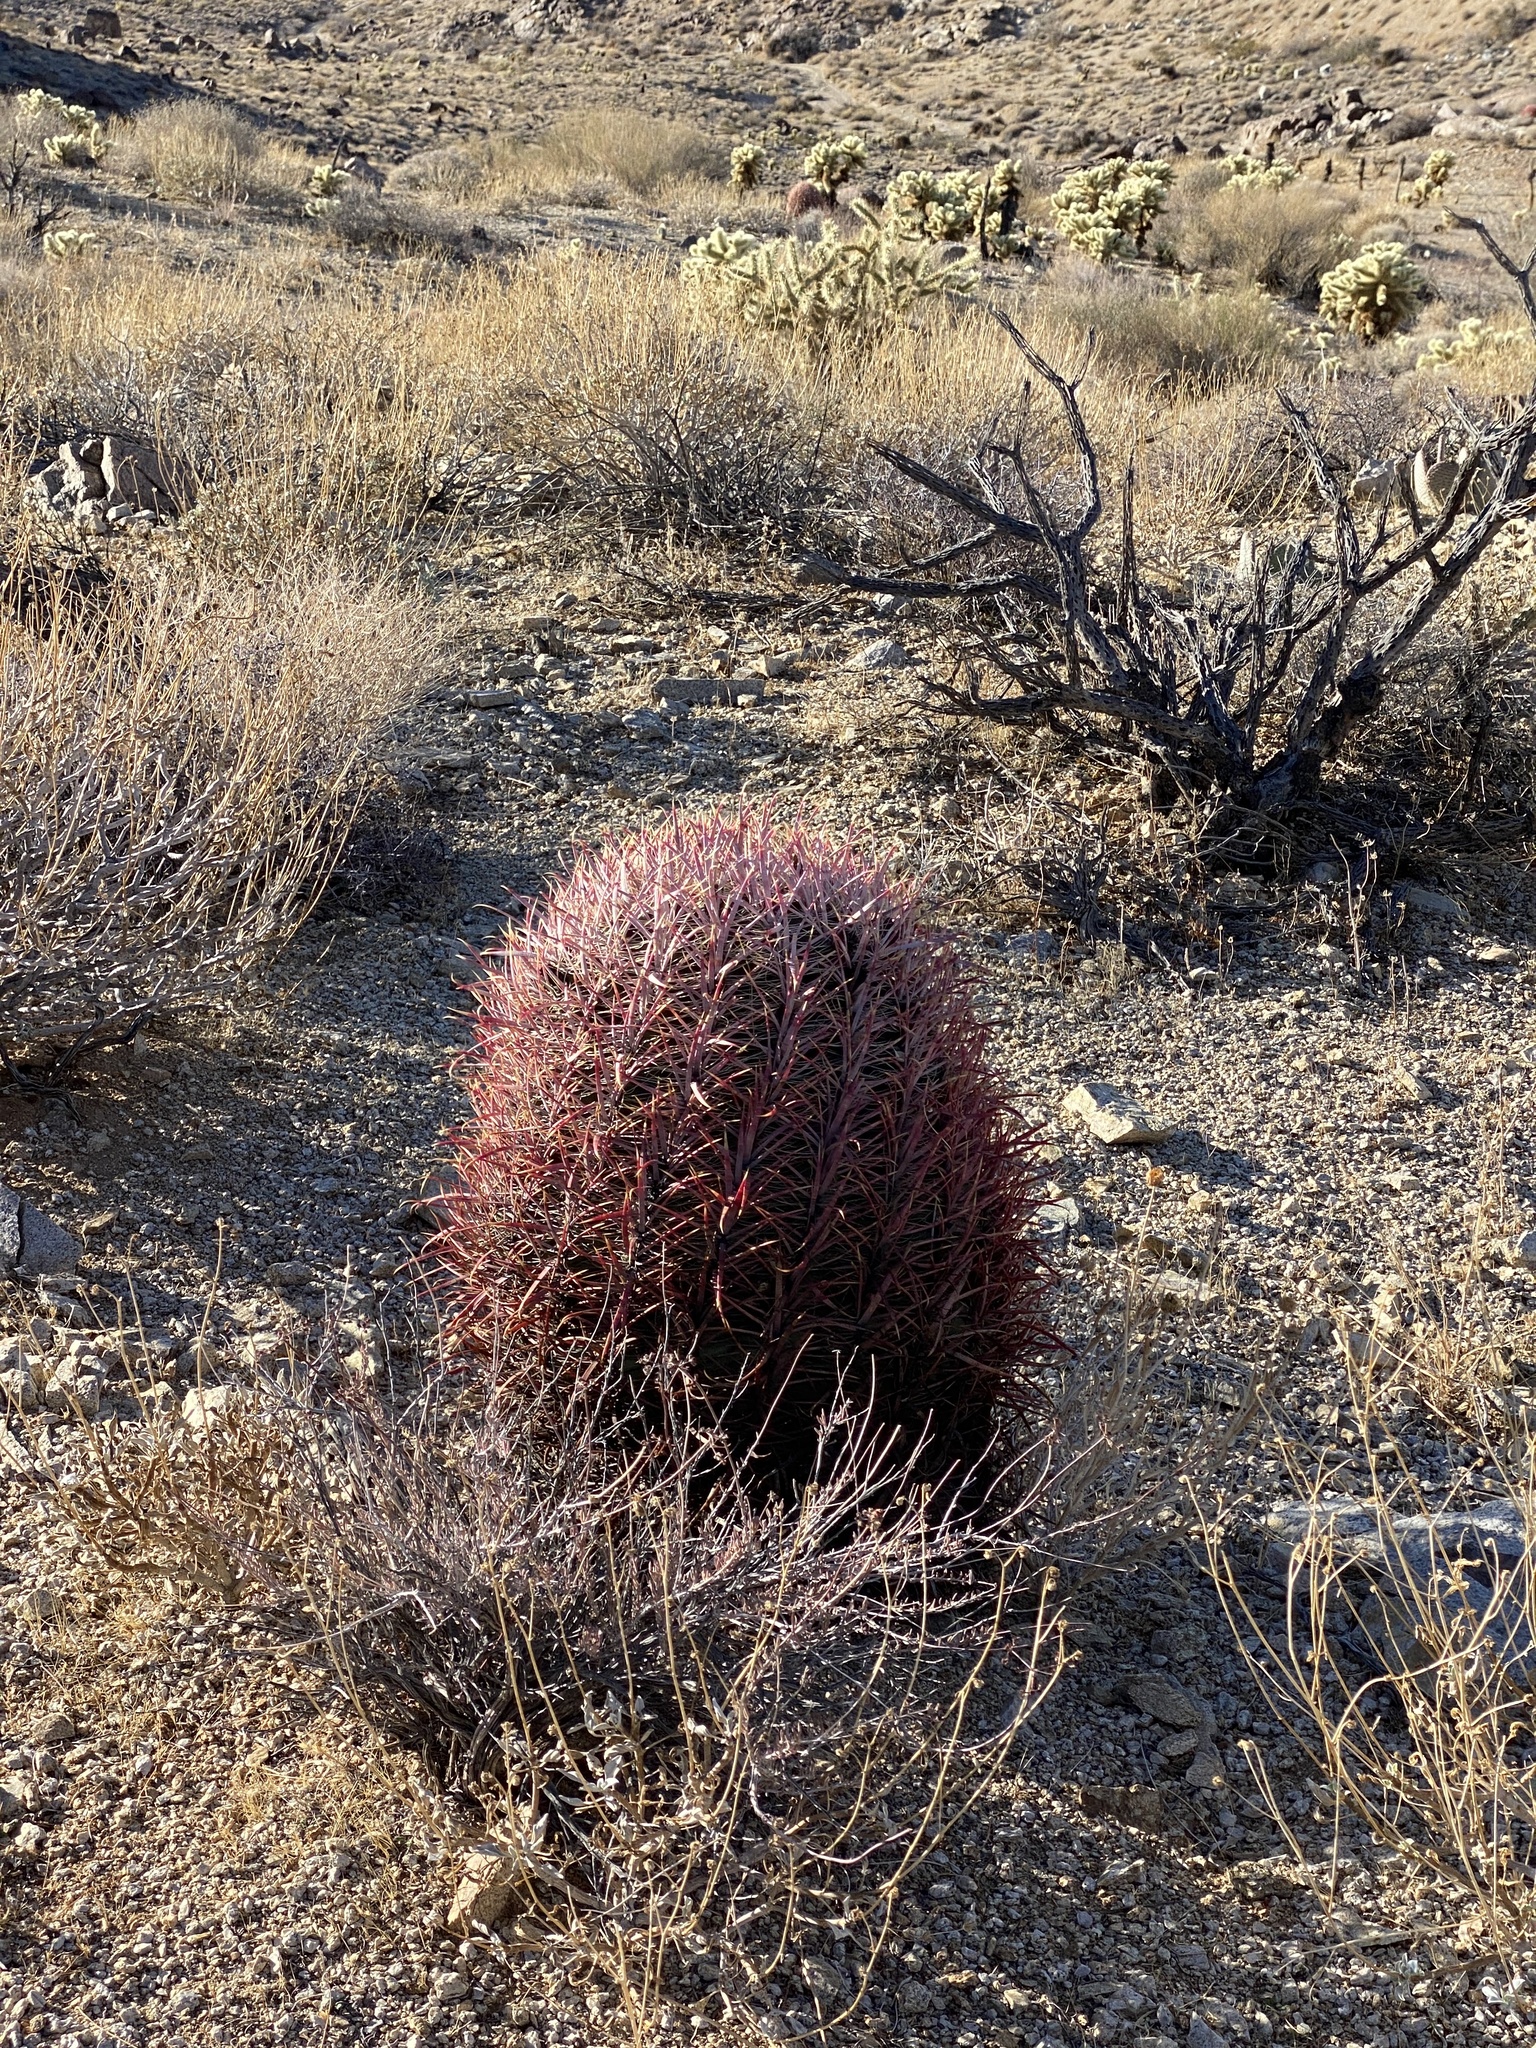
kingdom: Plantae
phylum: Tracheophyta
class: Magnoliopsida
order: Caryophyllales
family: Cactaceae
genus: Ferocactus
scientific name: Ferocactus cylindraceus
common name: California barrel cactus
